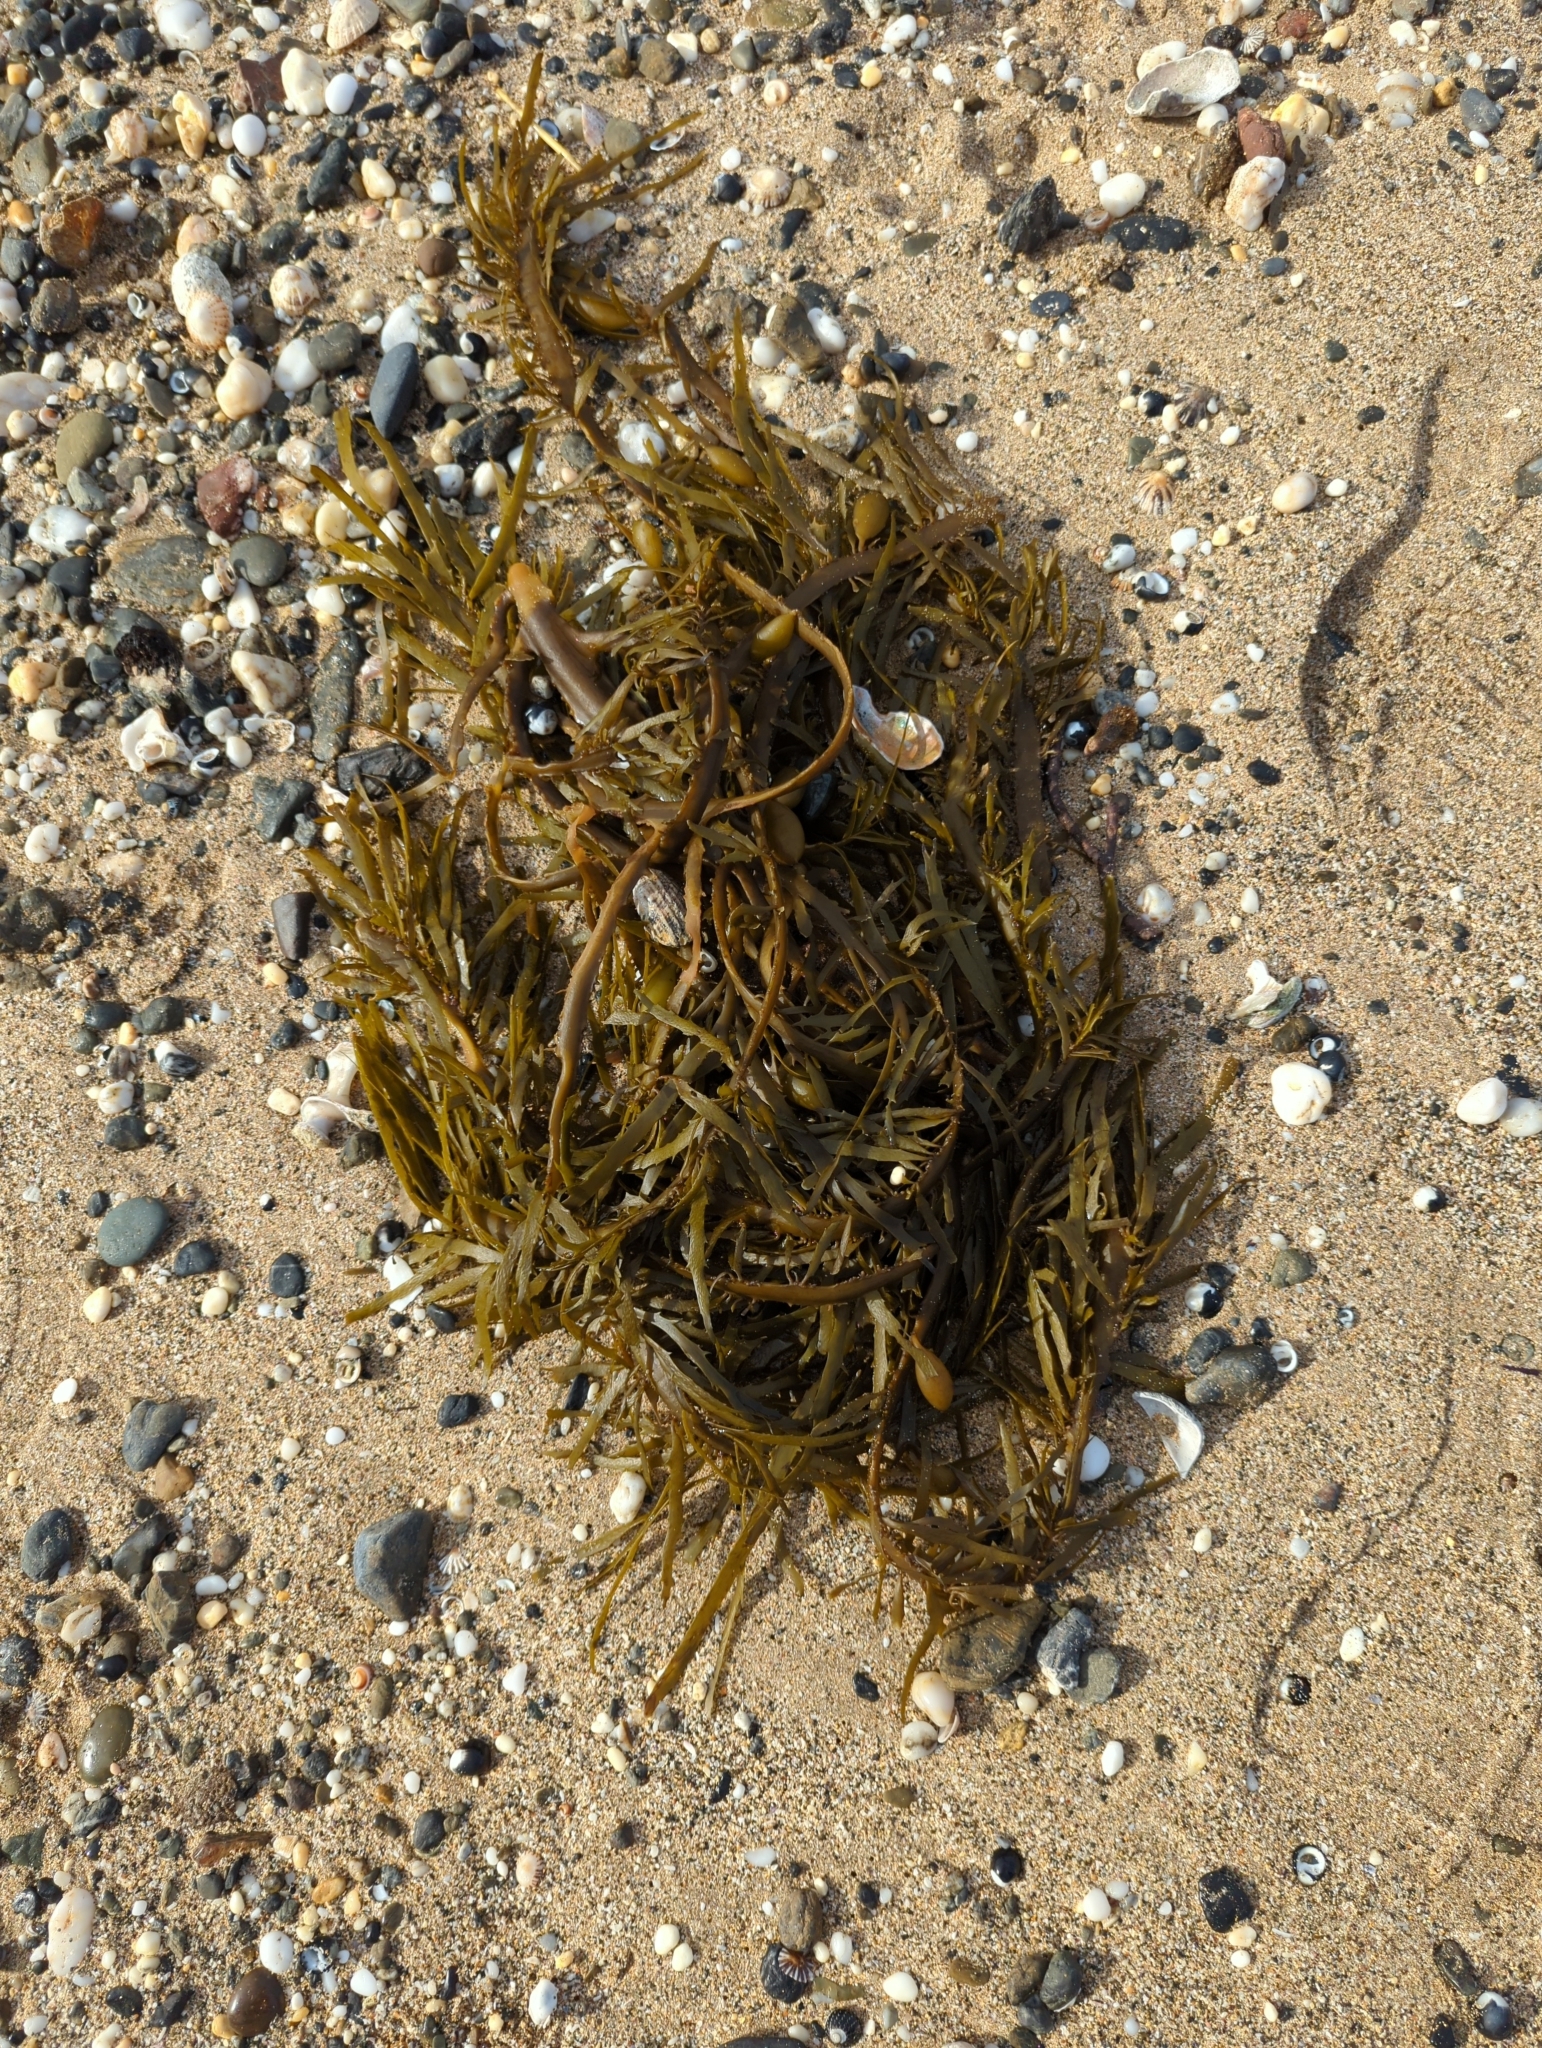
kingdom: Chromista
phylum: Ochrophyta
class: Phaeophyceae
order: Fucales
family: Seirococcaceae
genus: Phyllospora
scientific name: Phyllospora
